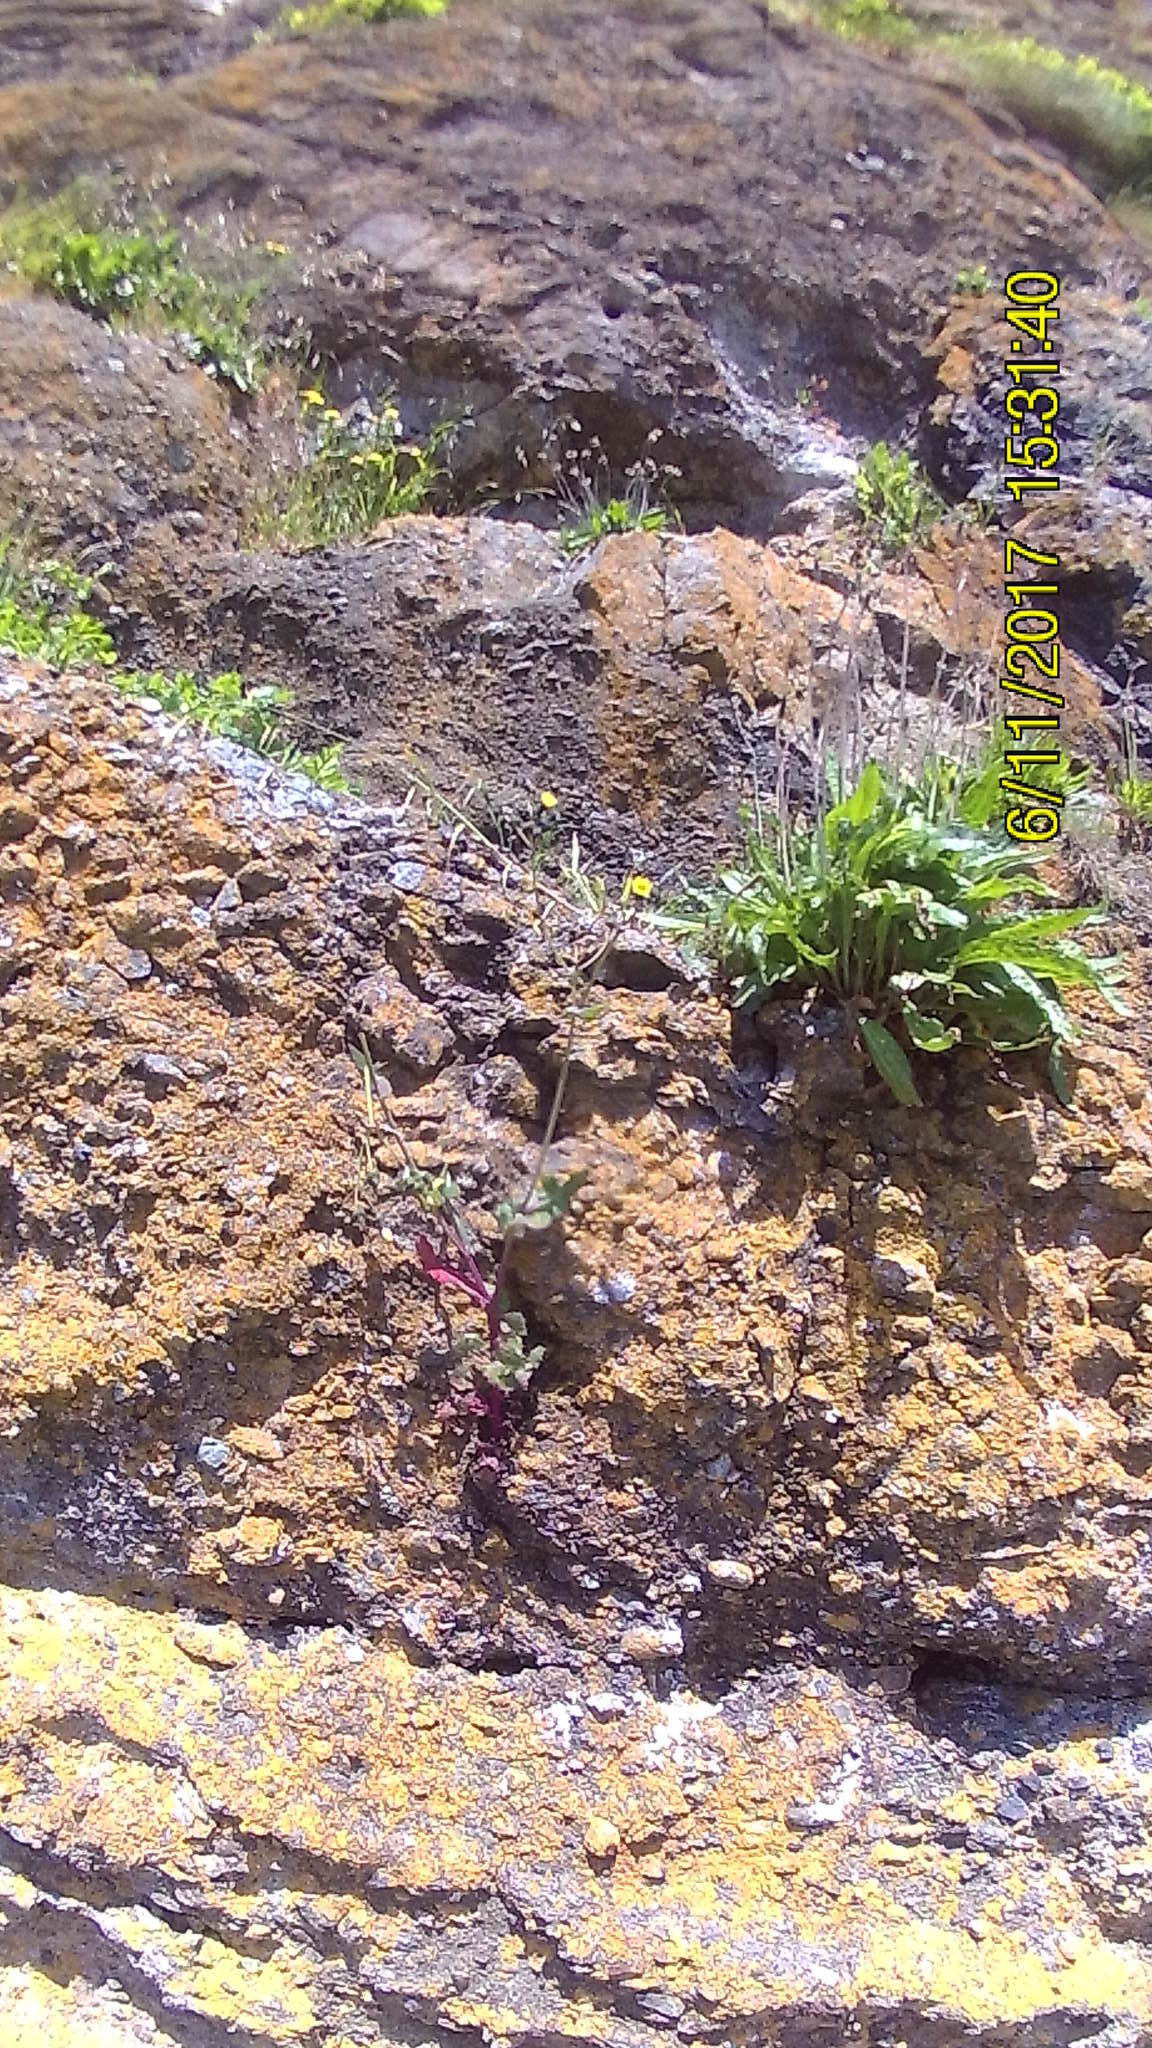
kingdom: Plantae
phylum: Tracheophyta
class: Magnoliopsida
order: Asterales
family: Asteraceae
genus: Sonchus
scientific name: Sonchus oleraceus
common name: Common sowthistle
